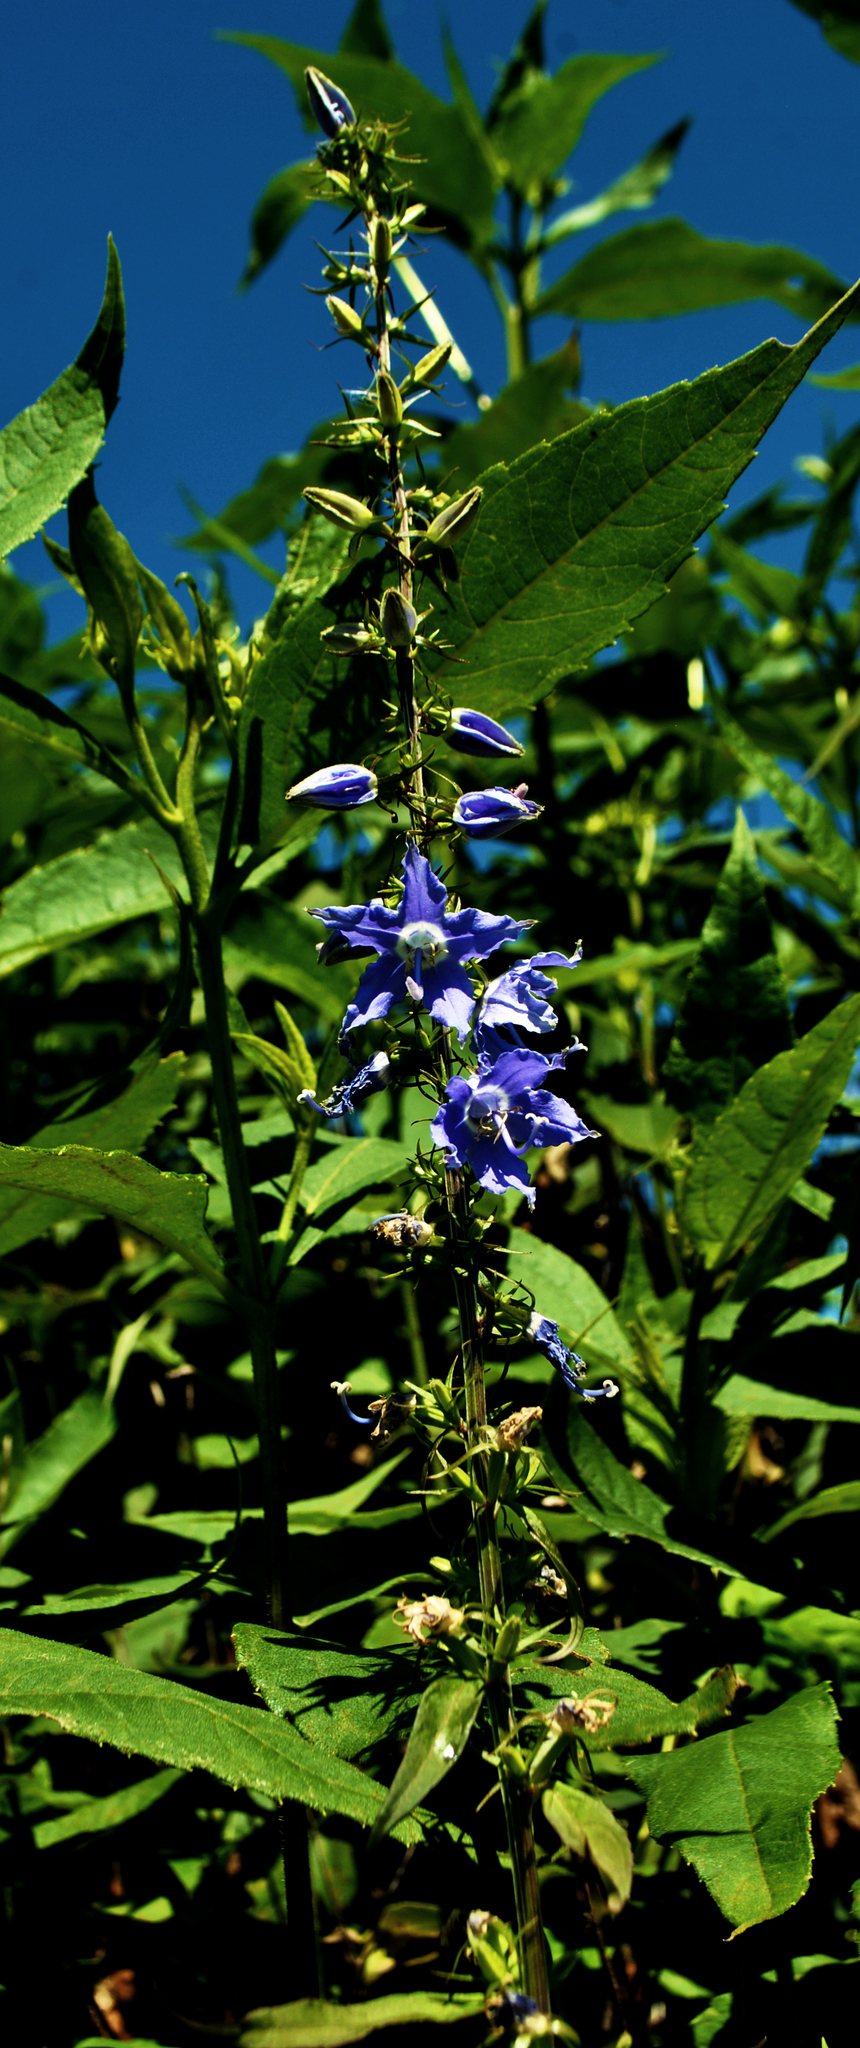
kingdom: Plantae
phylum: Tracheophyta
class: Magnoliopsida
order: Asterales
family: Campanulaceae
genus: Campanulastrum
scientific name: Campanulastrum americanum
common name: American bellflower
